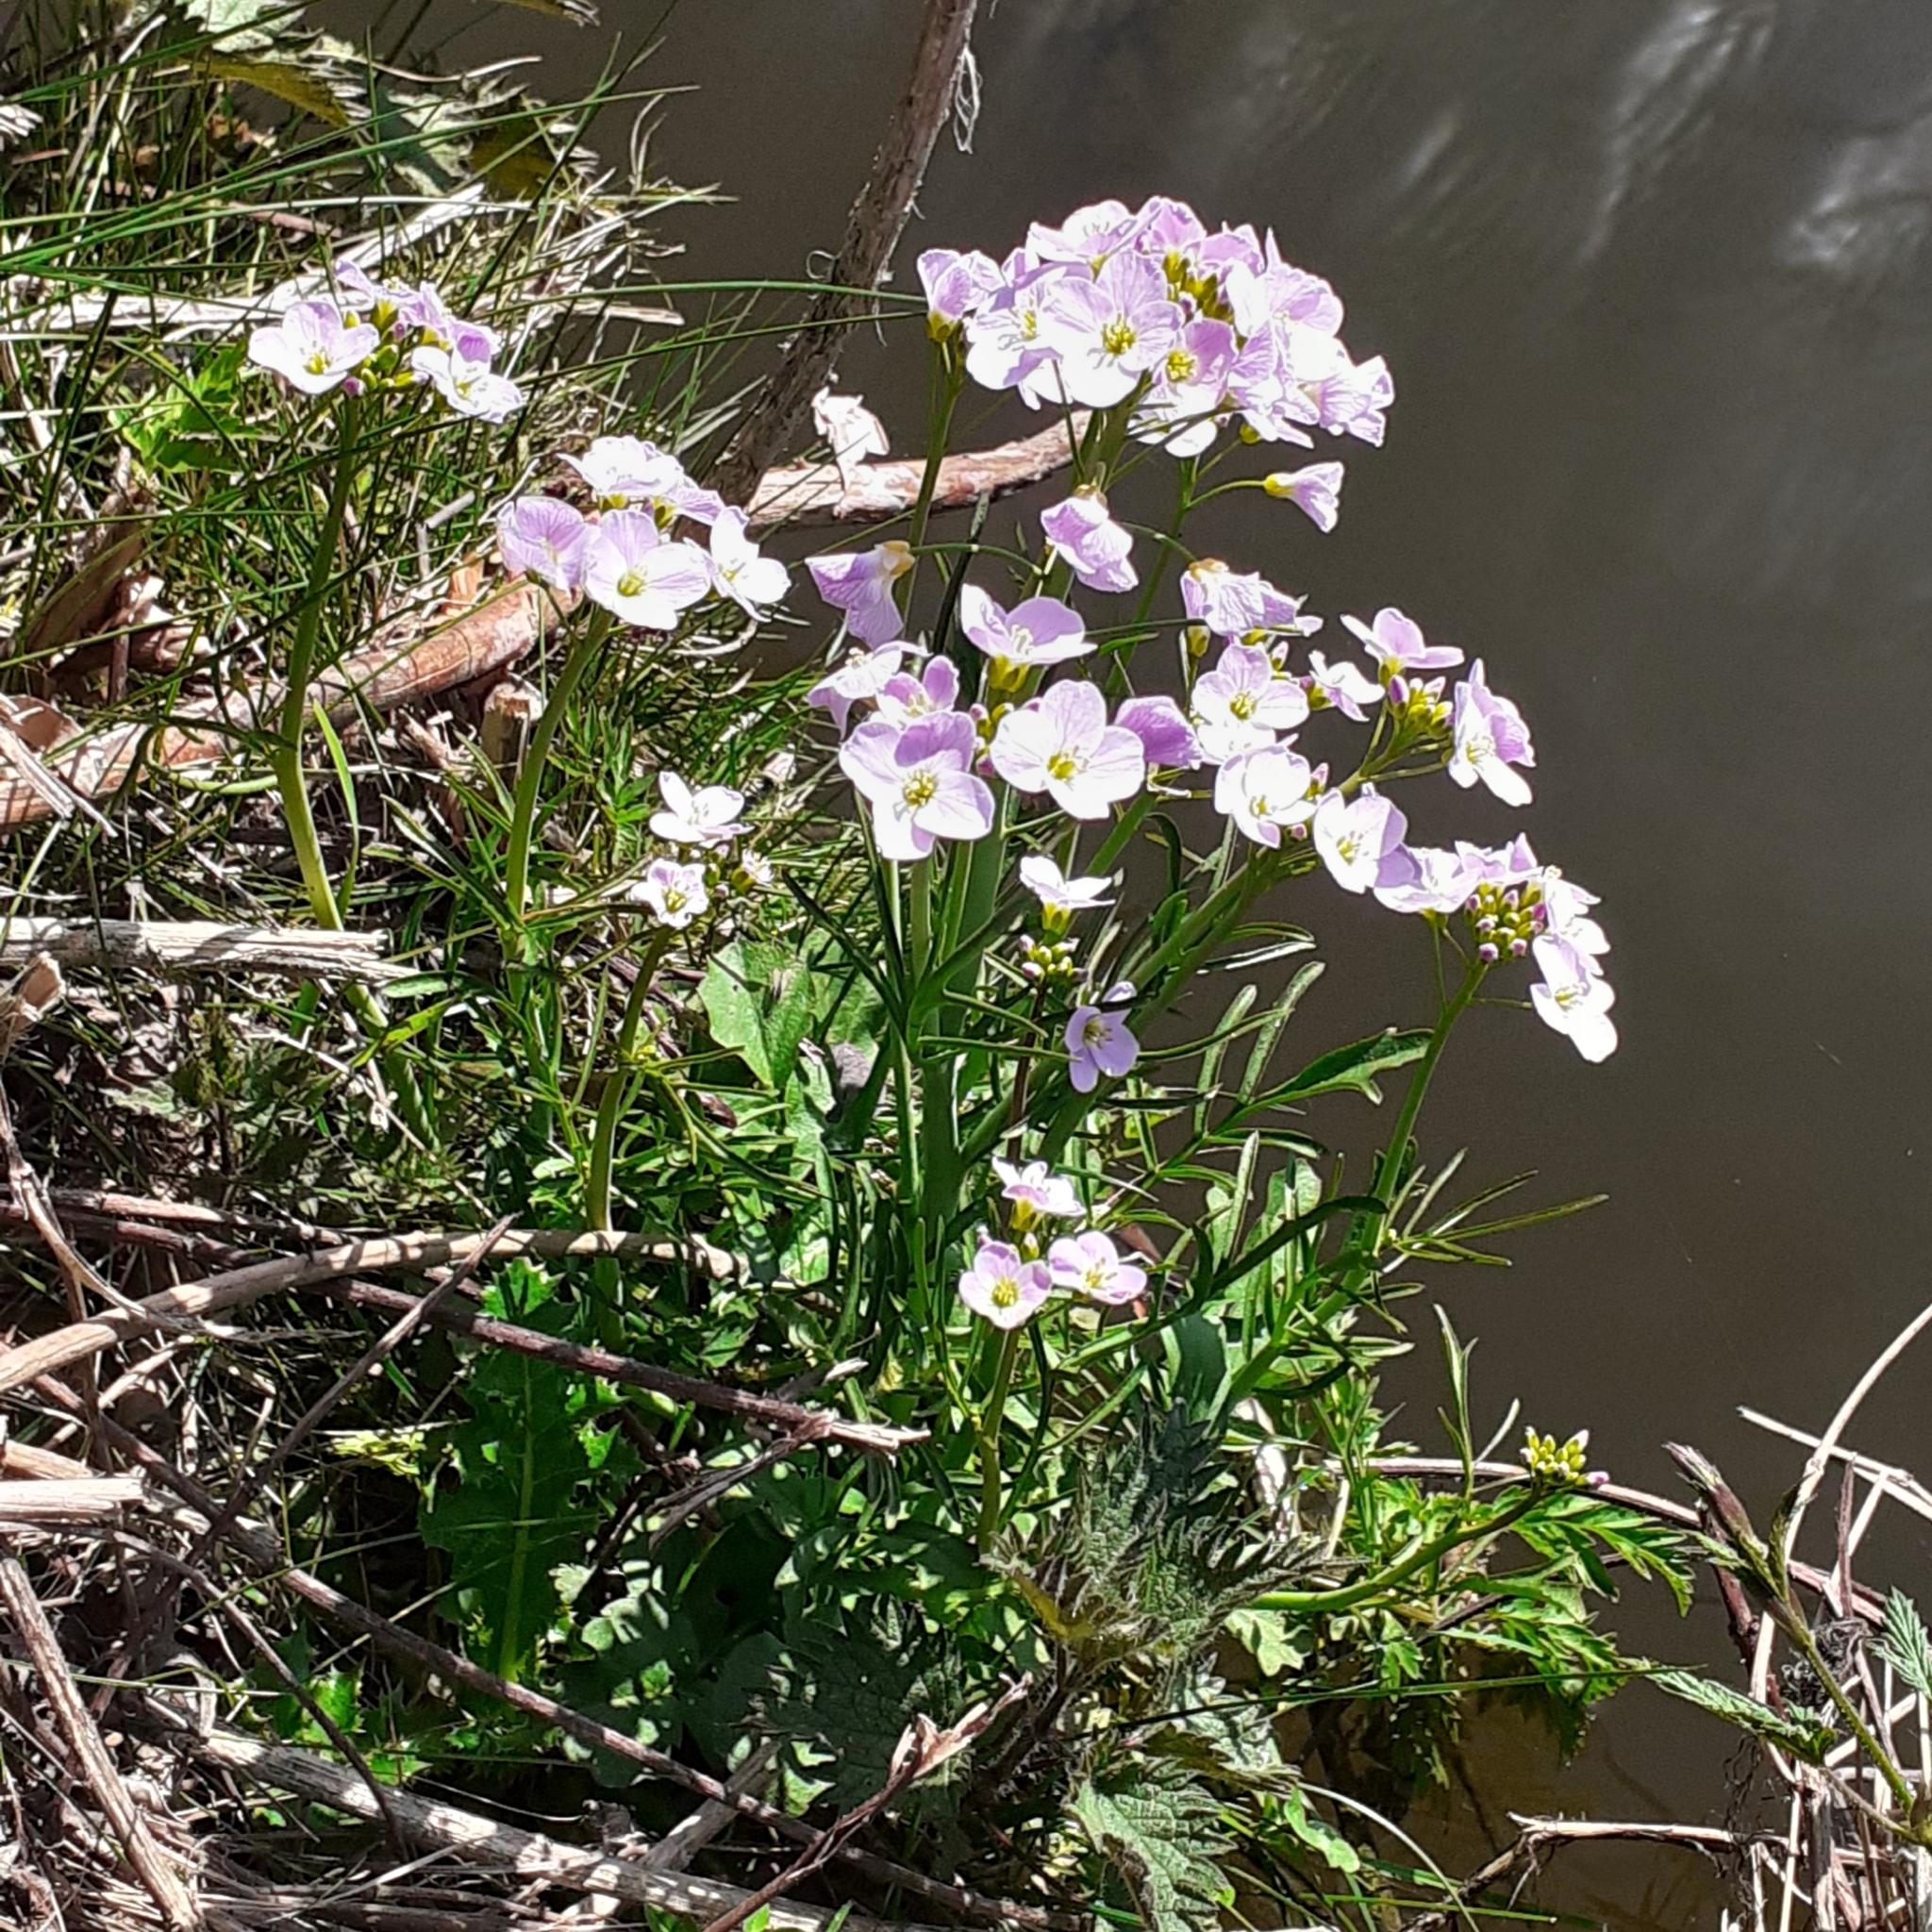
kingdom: Plantae
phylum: Tracheophyta
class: Magnoliopsida
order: Brassicales
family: Brassicaceae
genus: Cardamine
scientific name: Cardamine pratensis
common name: Cuckoo flower
